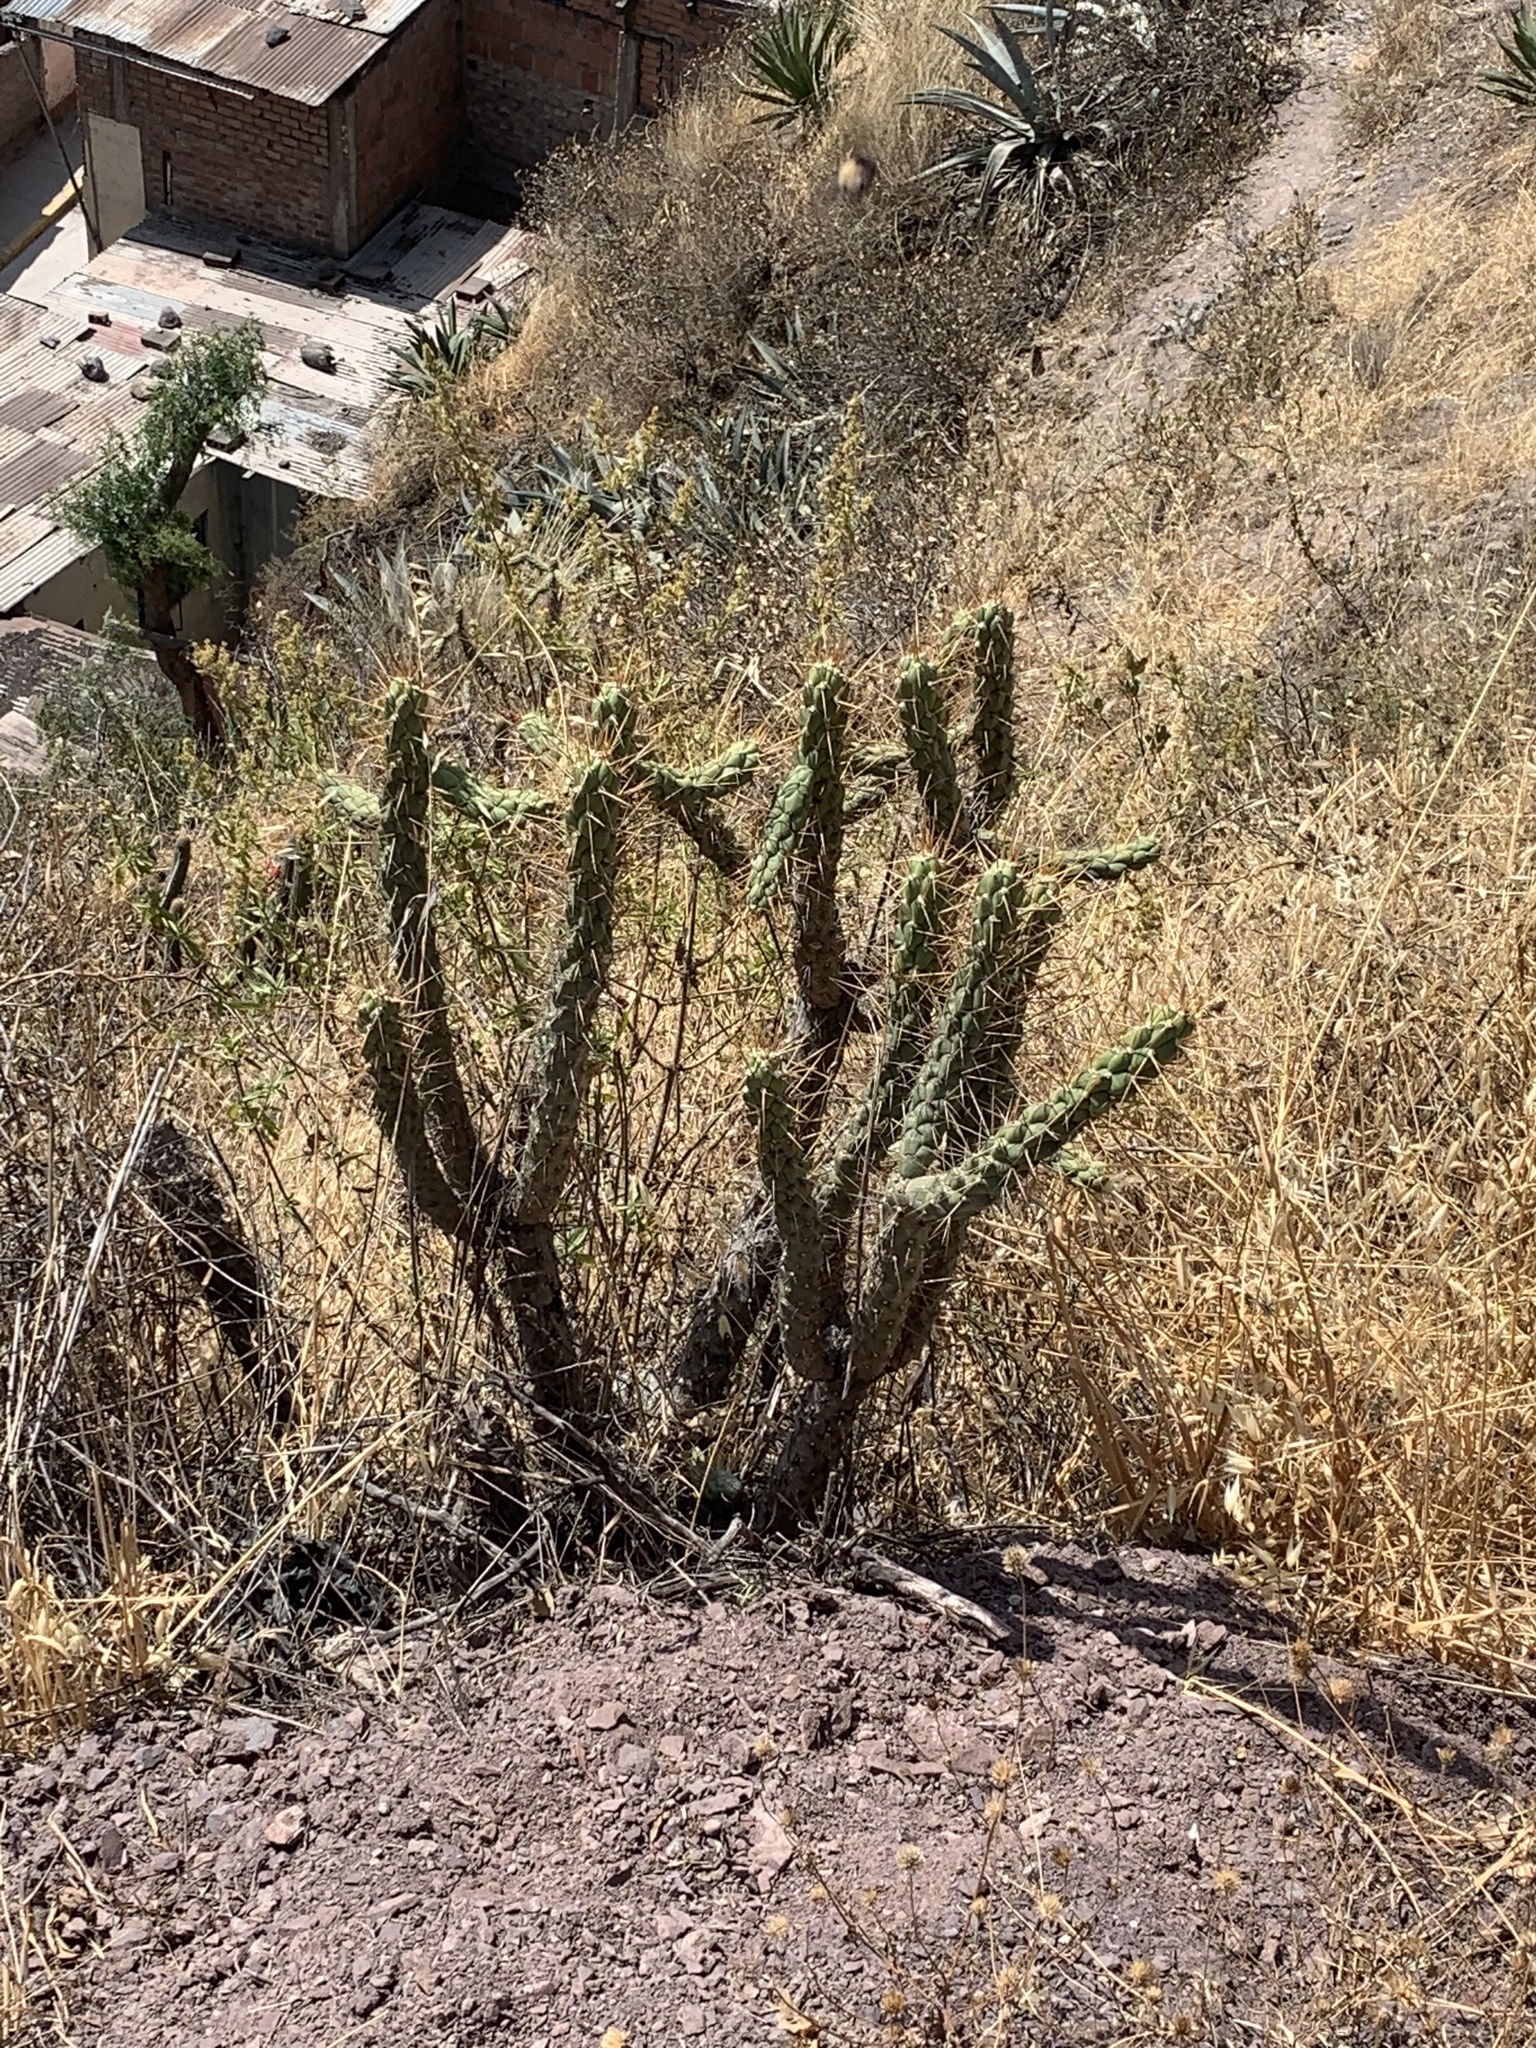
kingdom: Plantae
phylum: Tracheophyta
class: Magnoliopsida
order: Caryophyllales
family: Cactaceae
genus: Austrocylindropuntia
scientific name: Austrocylindropuntia subulata
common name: Eve's needle cactus
